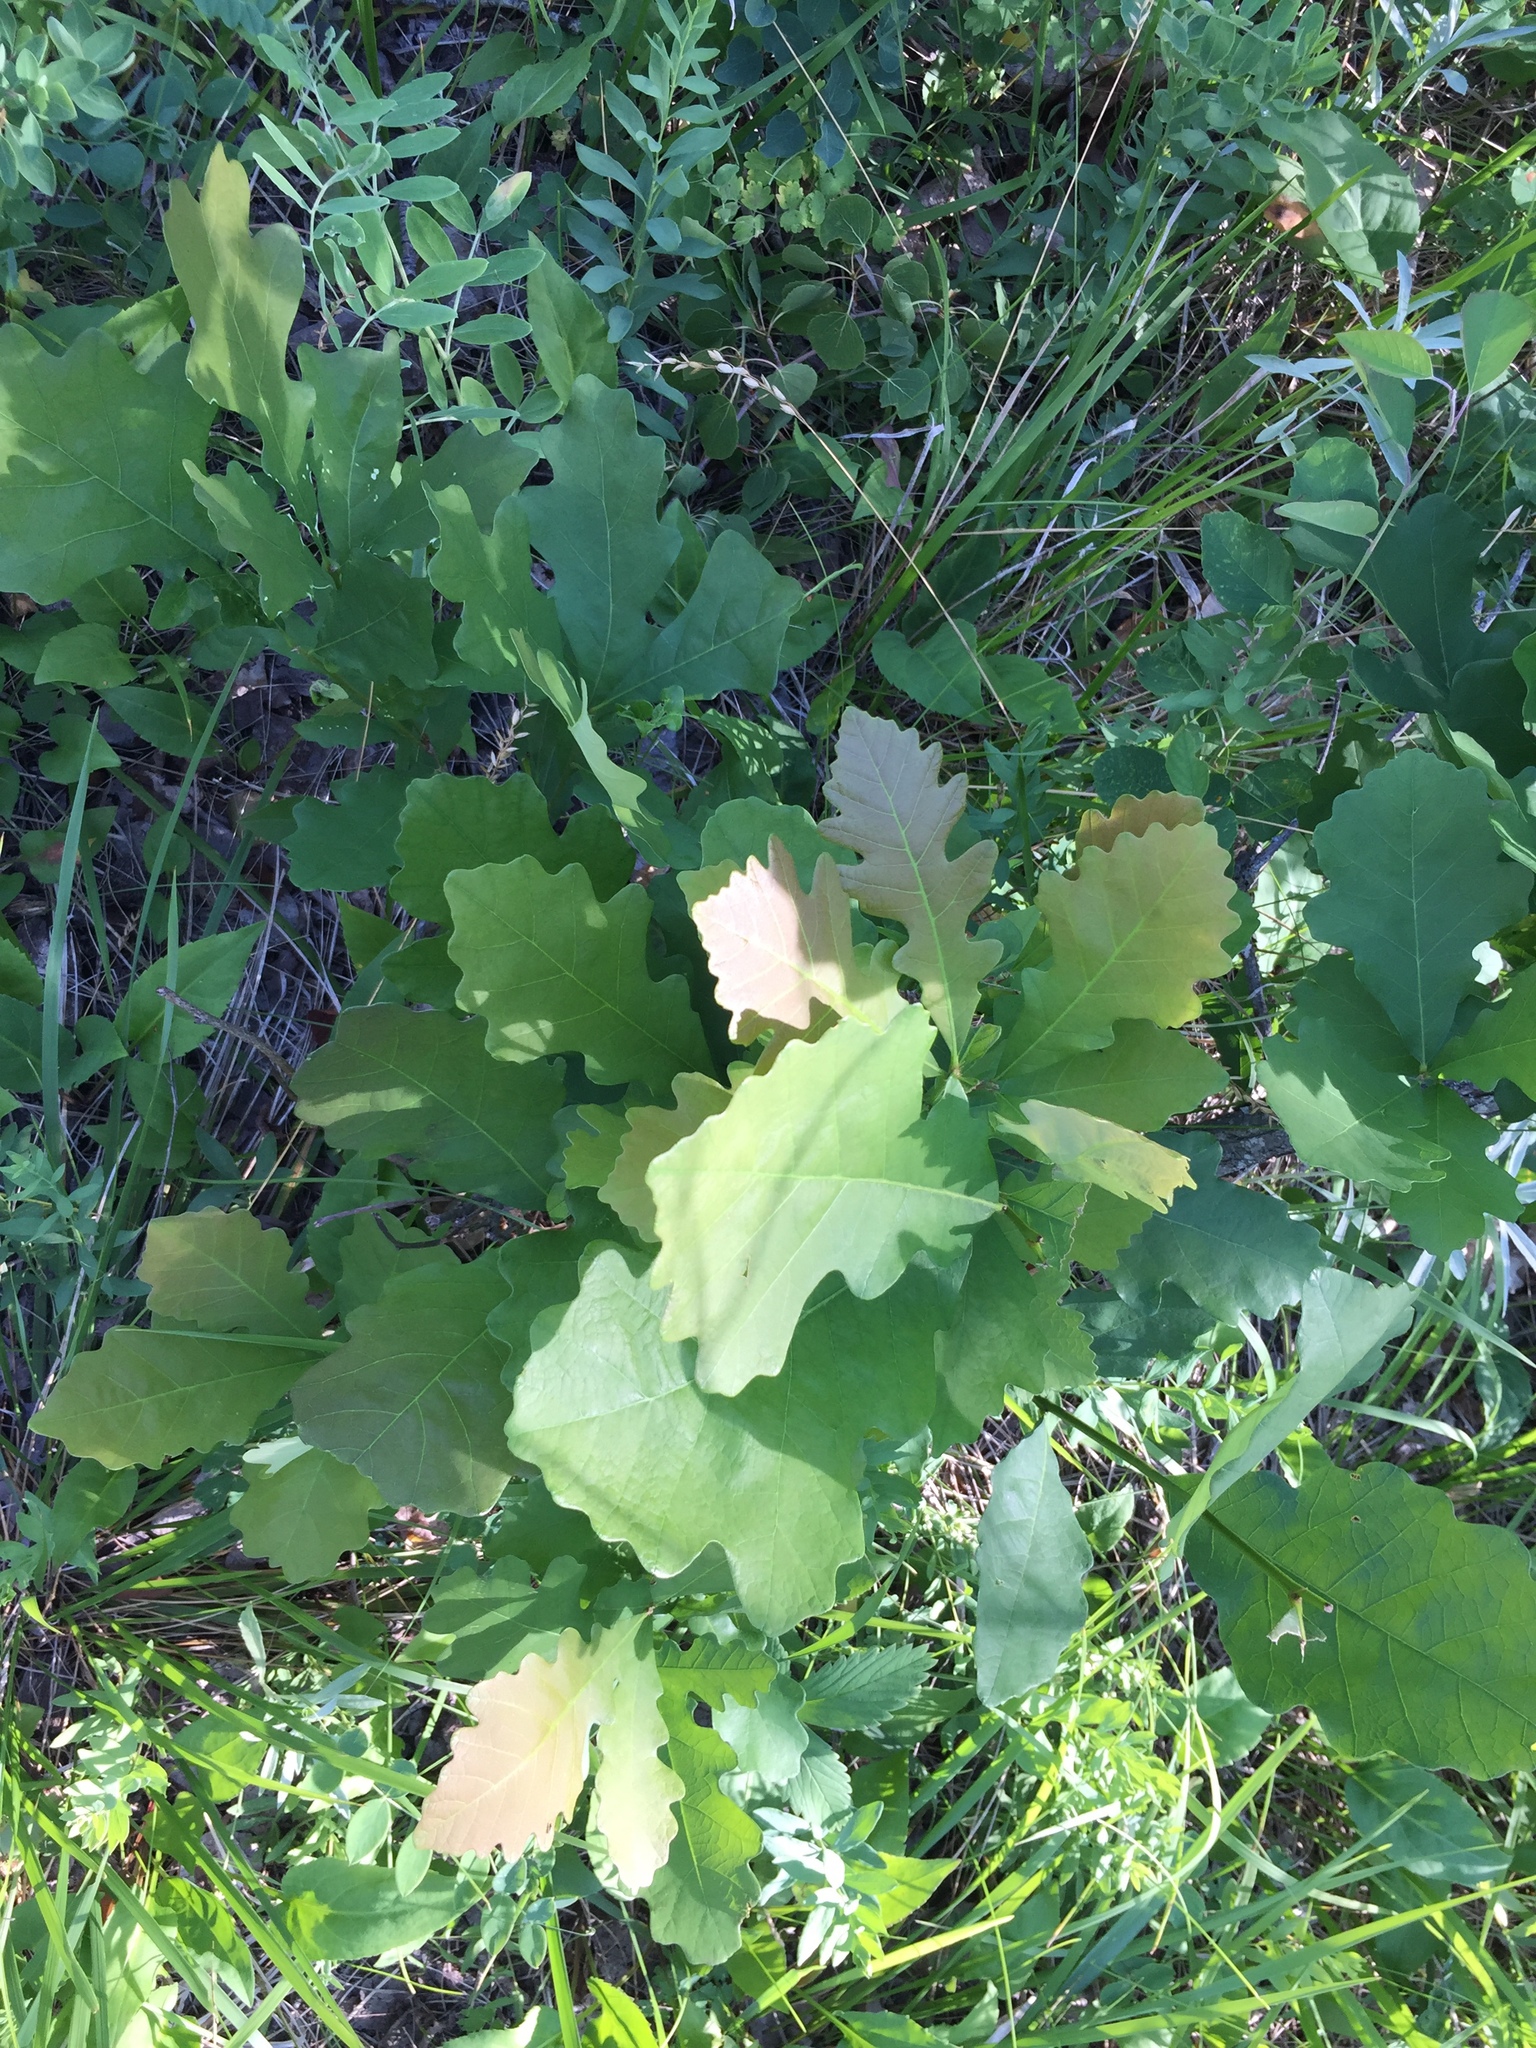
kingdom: Plantae
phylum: Tracheophyta
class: Magnoliopsida
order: Fagales
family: Fagaceae
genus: Quercus
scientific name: Quercus macrocarpa
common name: Bur oak
